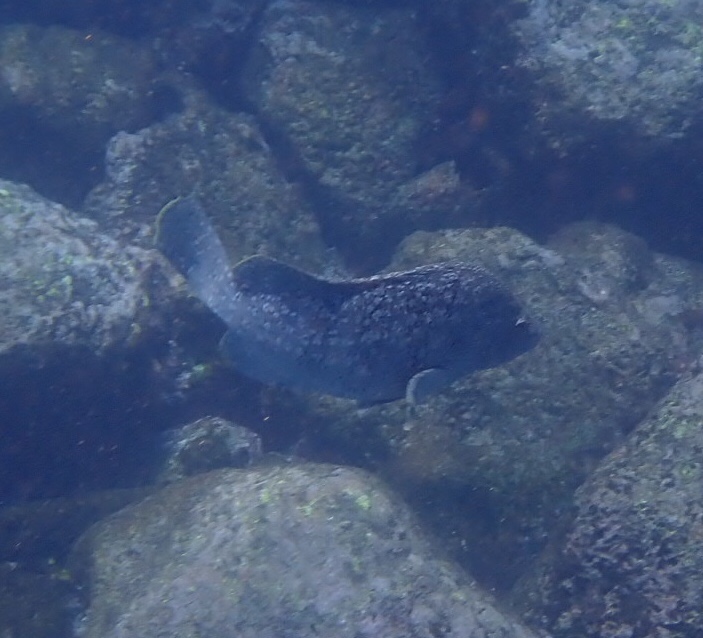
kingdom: Animalia
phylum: Chordata
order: Perciformes
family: Serranidae
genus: Dermatolepis
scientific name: Dermatolepis dermatolepis
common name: Leather bass
